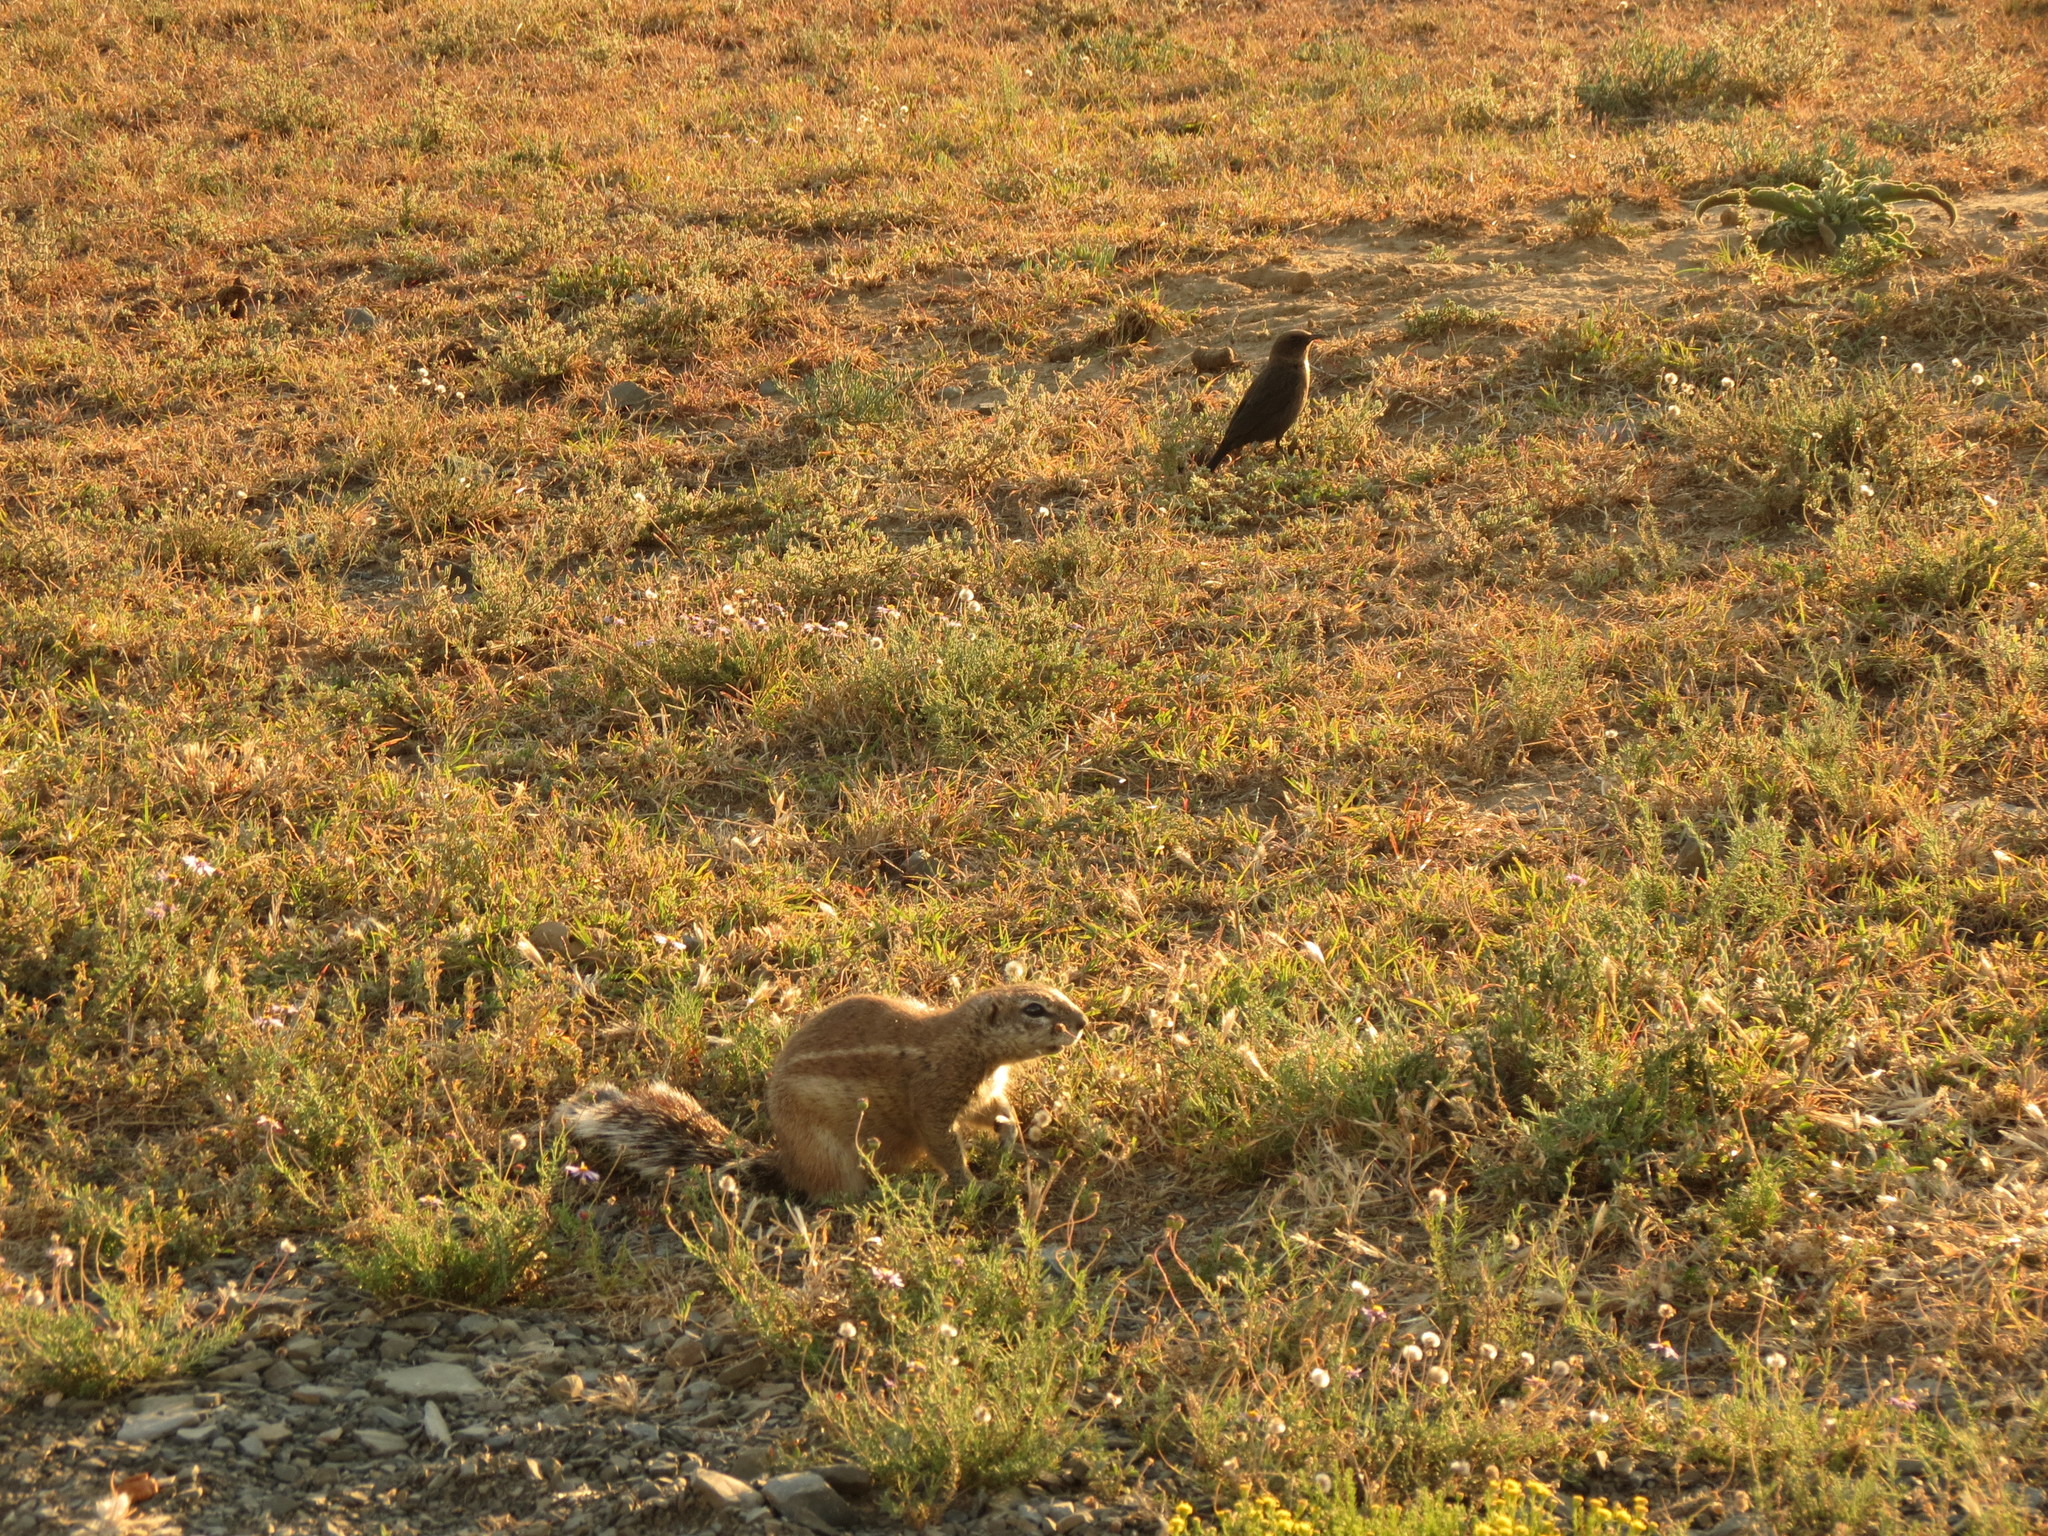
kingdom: Animalia
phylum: Chordata
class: Aves
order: Passeriformes
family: Muscicapidae
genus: Myrmecocichla
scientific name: Myrmecocichla formicivora
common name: Ant-eating chat
